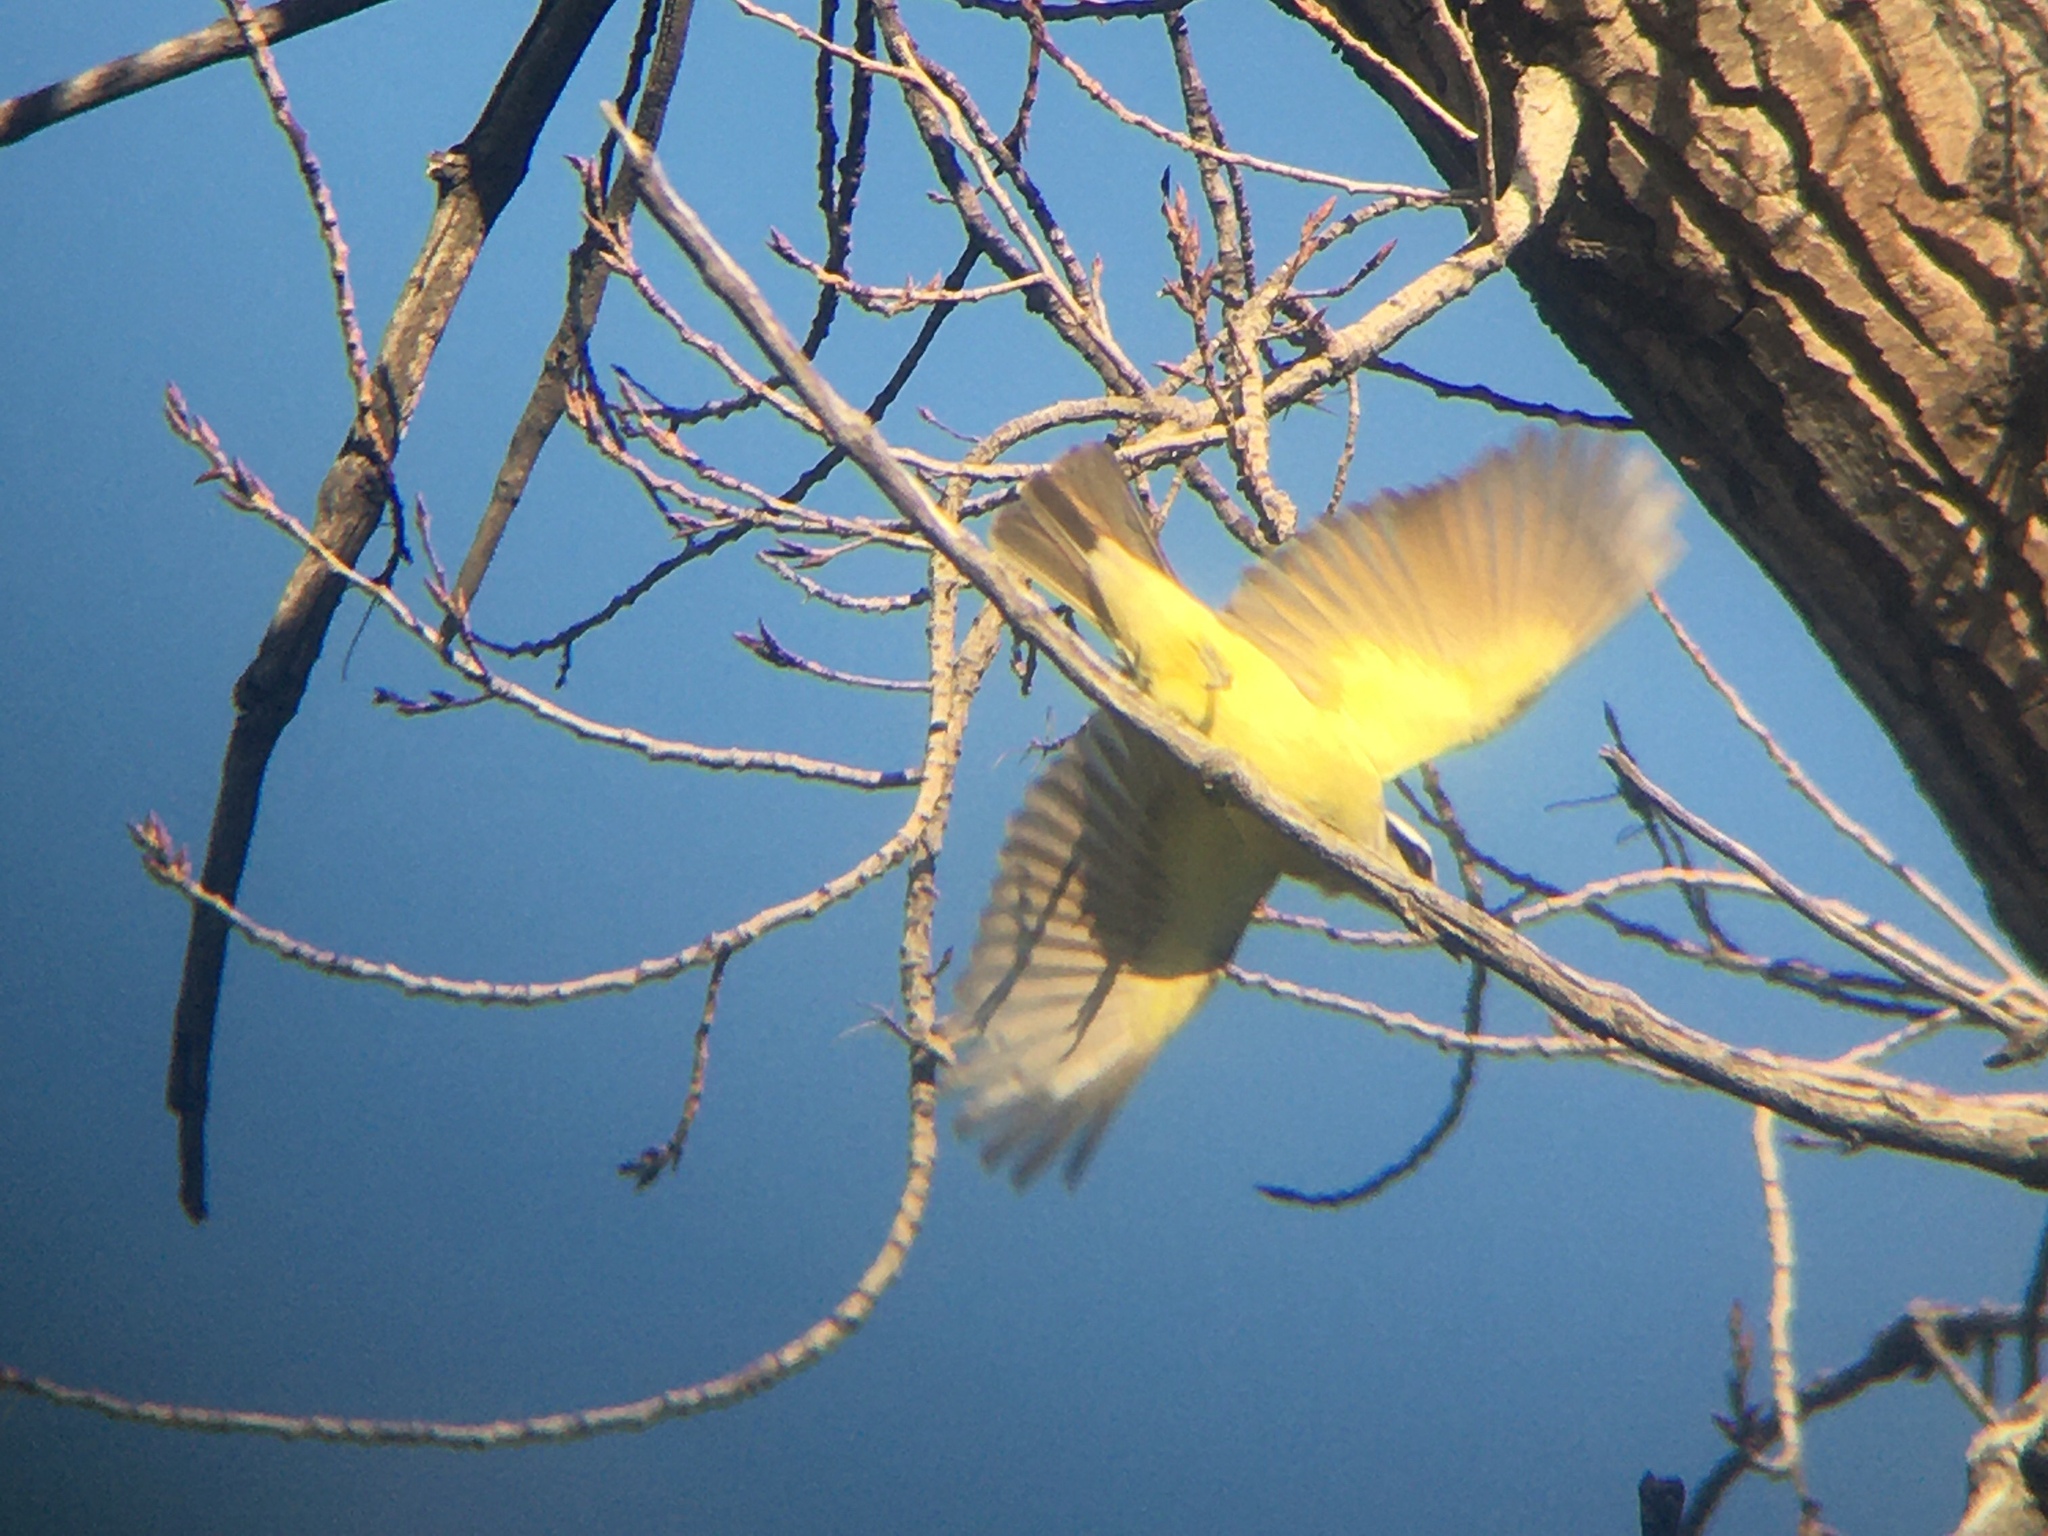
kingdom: Animalia
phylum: Chordata
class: Aves
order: Passeriformes
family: Tyrannidae
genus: Pitangus
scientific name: Pitangus sulphuratus
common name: Great kiskadee
